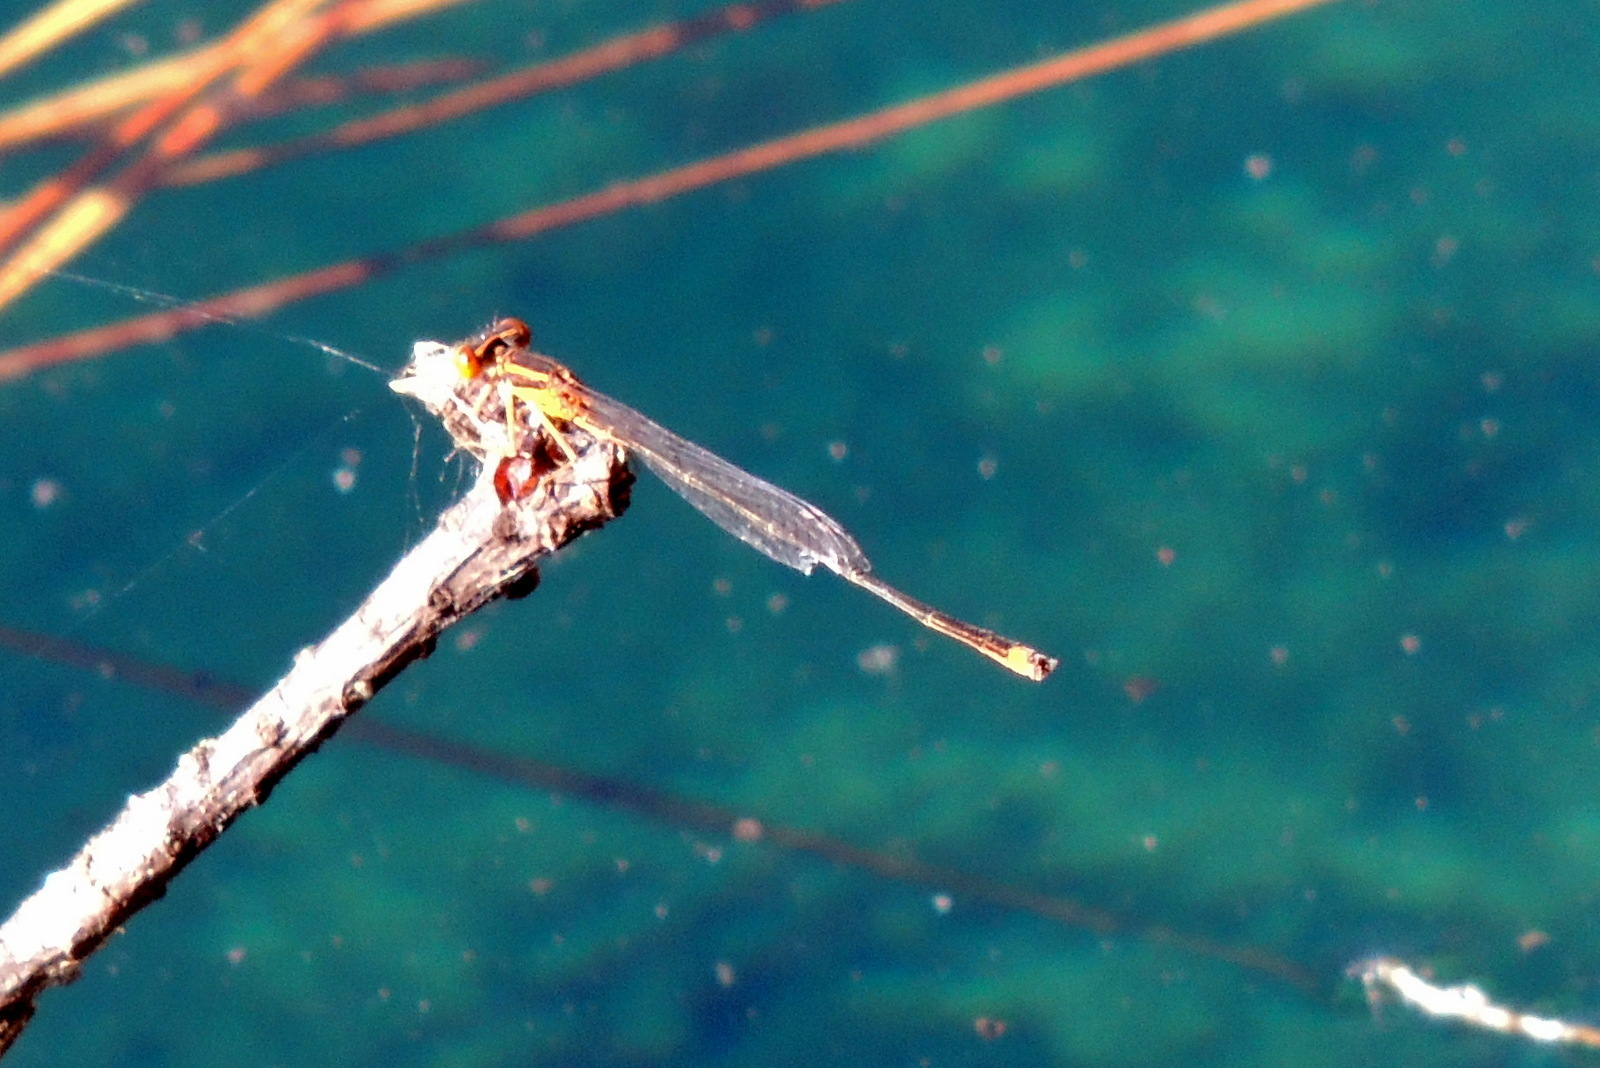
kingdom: Animalia
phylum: Arthropoda
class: Insecta
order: Odonata
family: Coenagrionidae
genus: Enallagma
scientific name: Enallagma signatum
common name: Orange bluet
